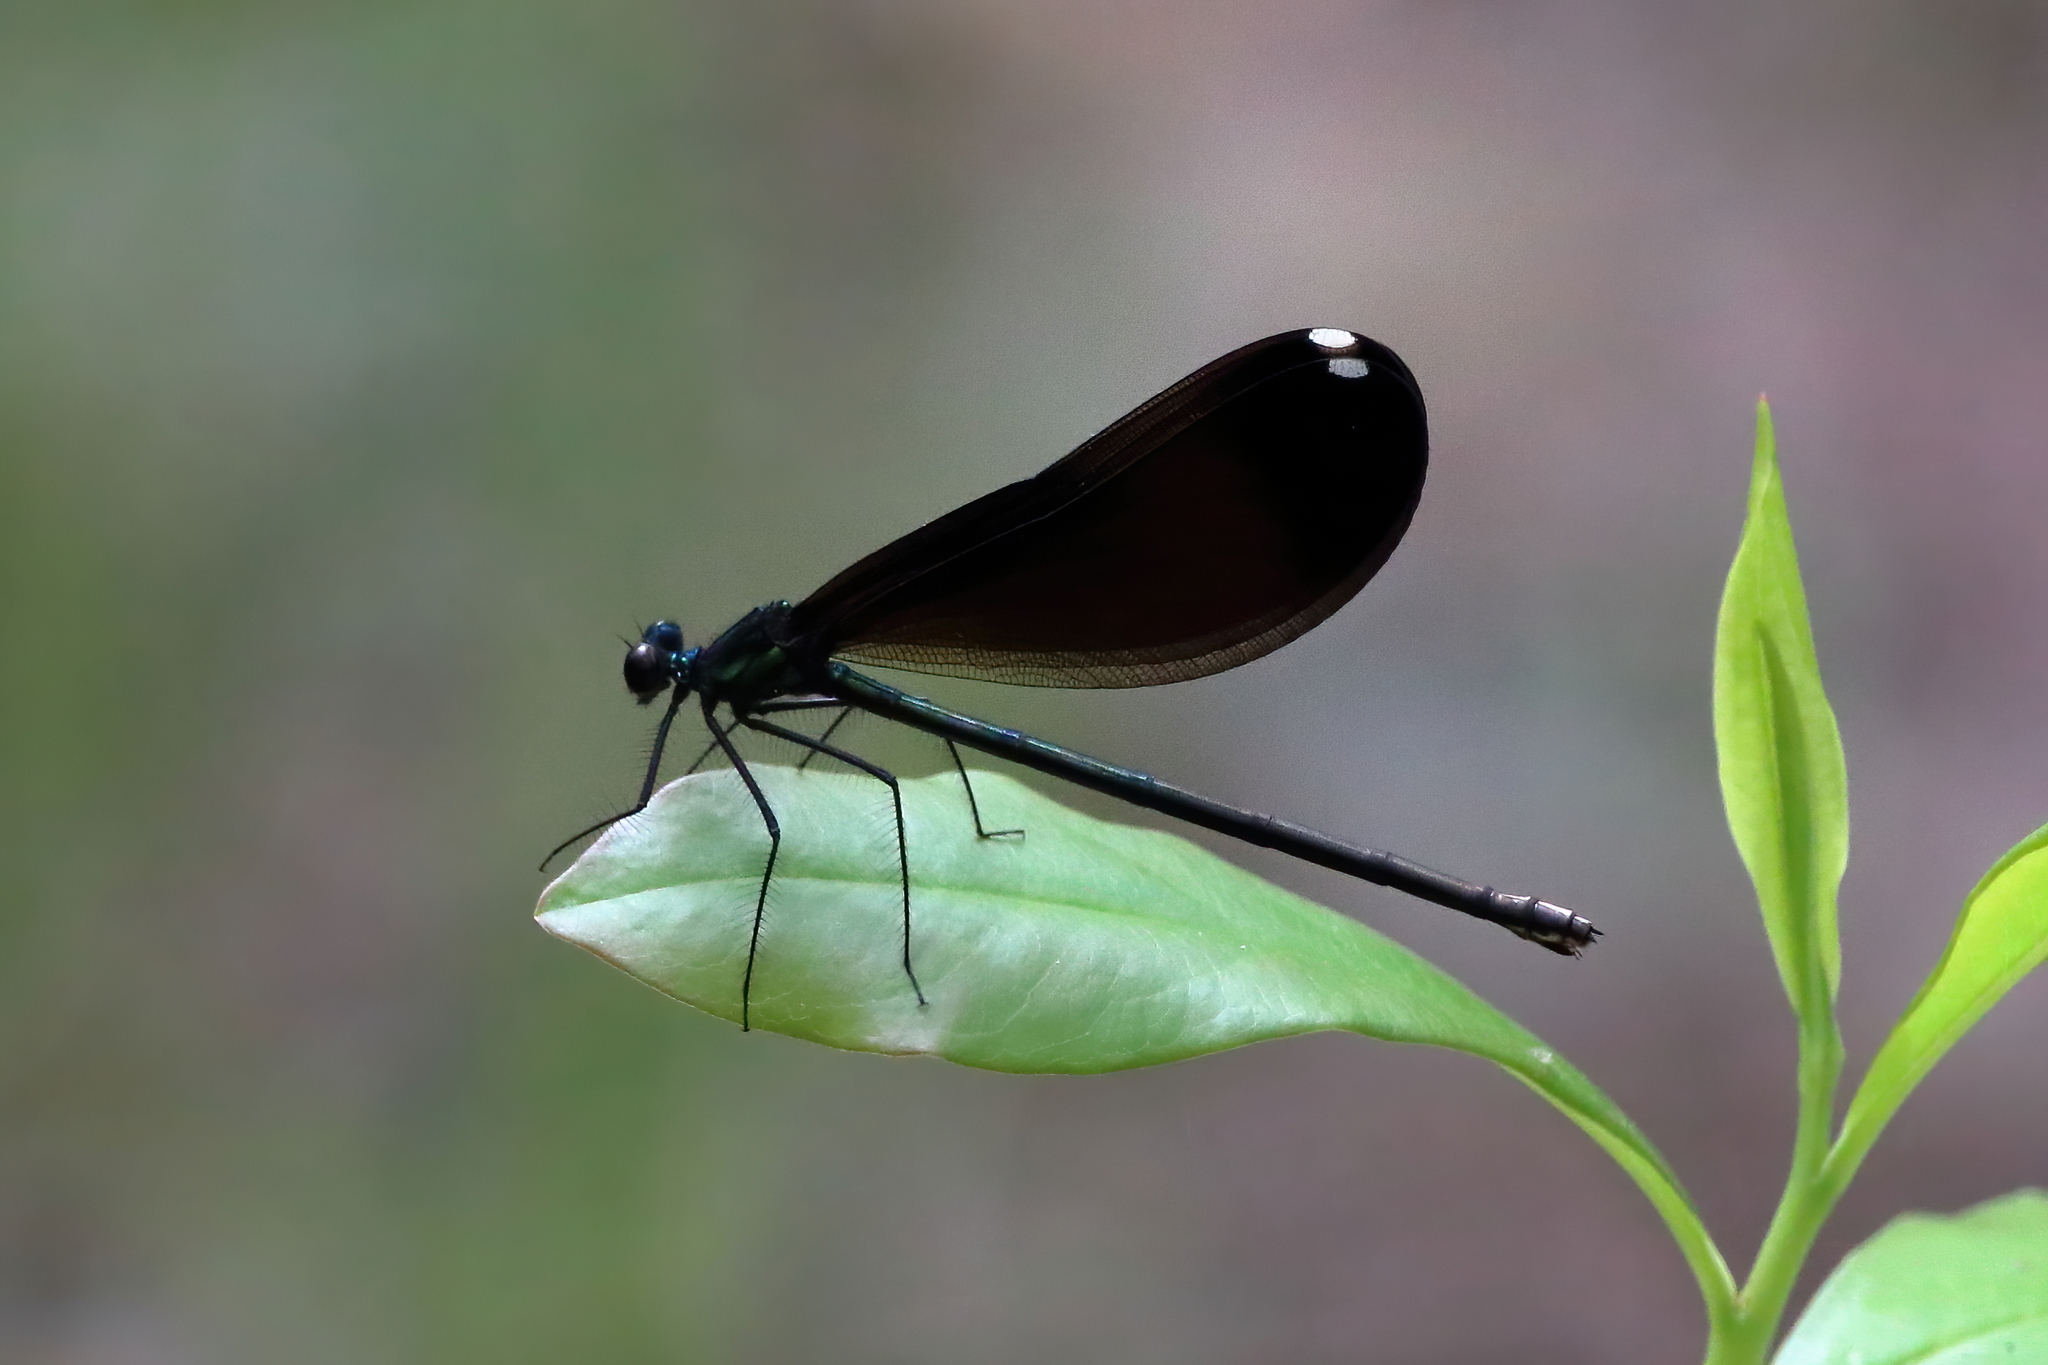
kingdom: Animalia
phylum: Arthropoda
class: Insecta
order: Odonata
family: Calopterygidae
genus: Calopteryx
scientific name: Calopteryx maculata
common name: Ebony jewelwing
